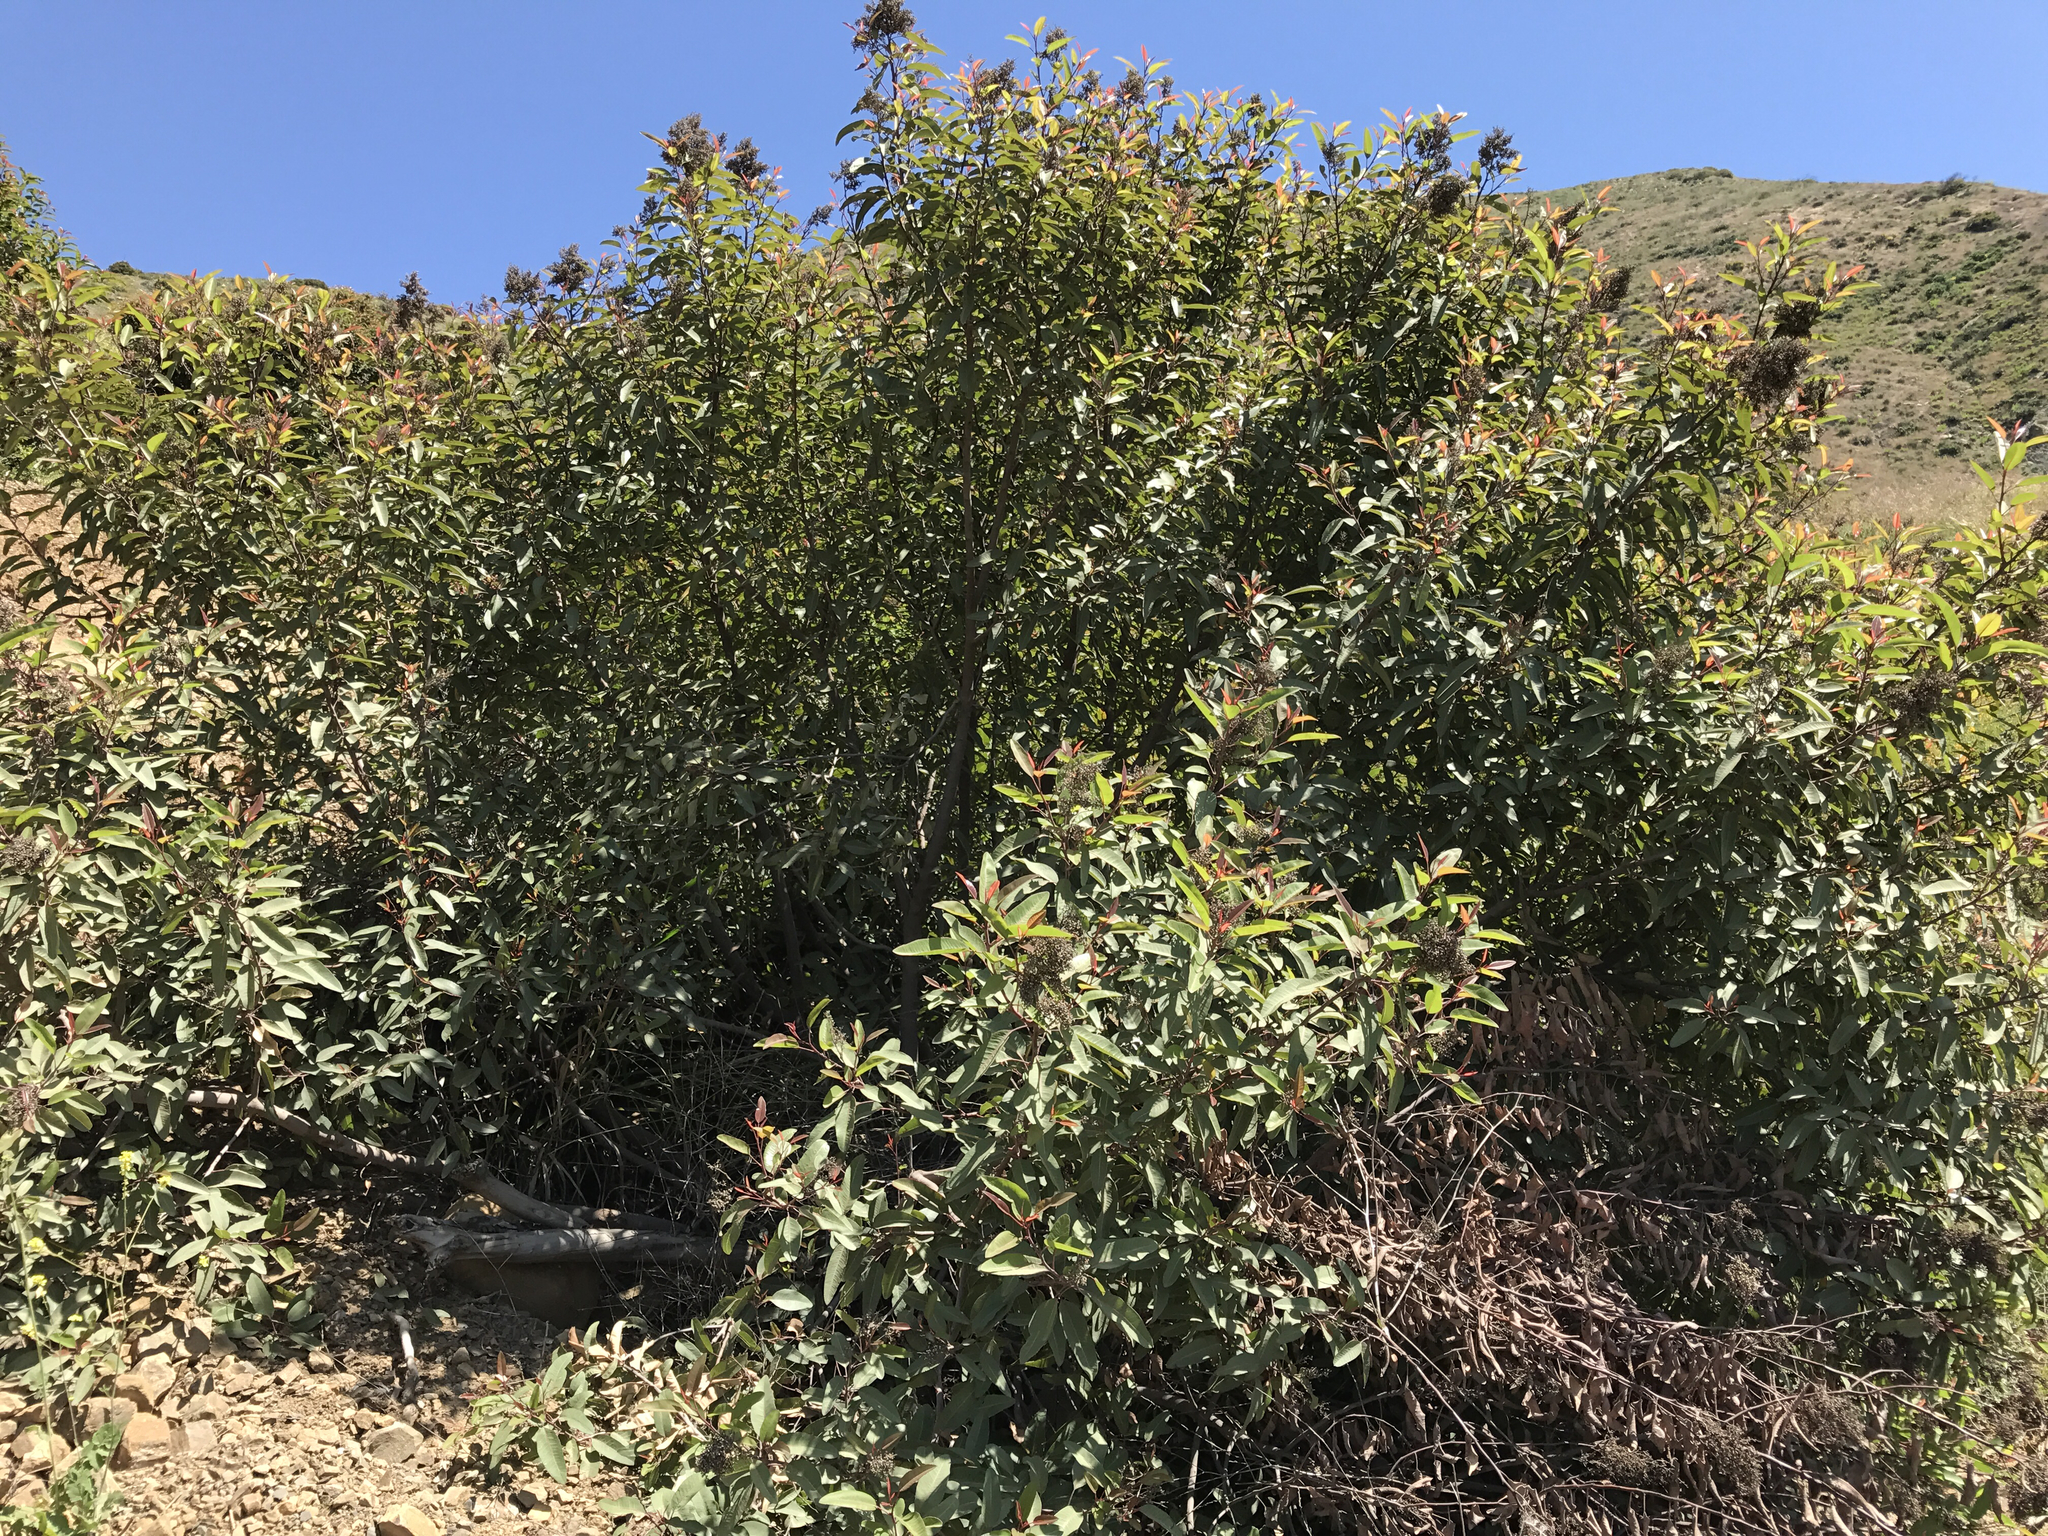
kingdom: Plantae
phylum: Tracheophyta
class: Magnoliopsida
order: Sapindales
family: Anacardiaceae
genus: Malosma
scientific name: Malosma laurina
